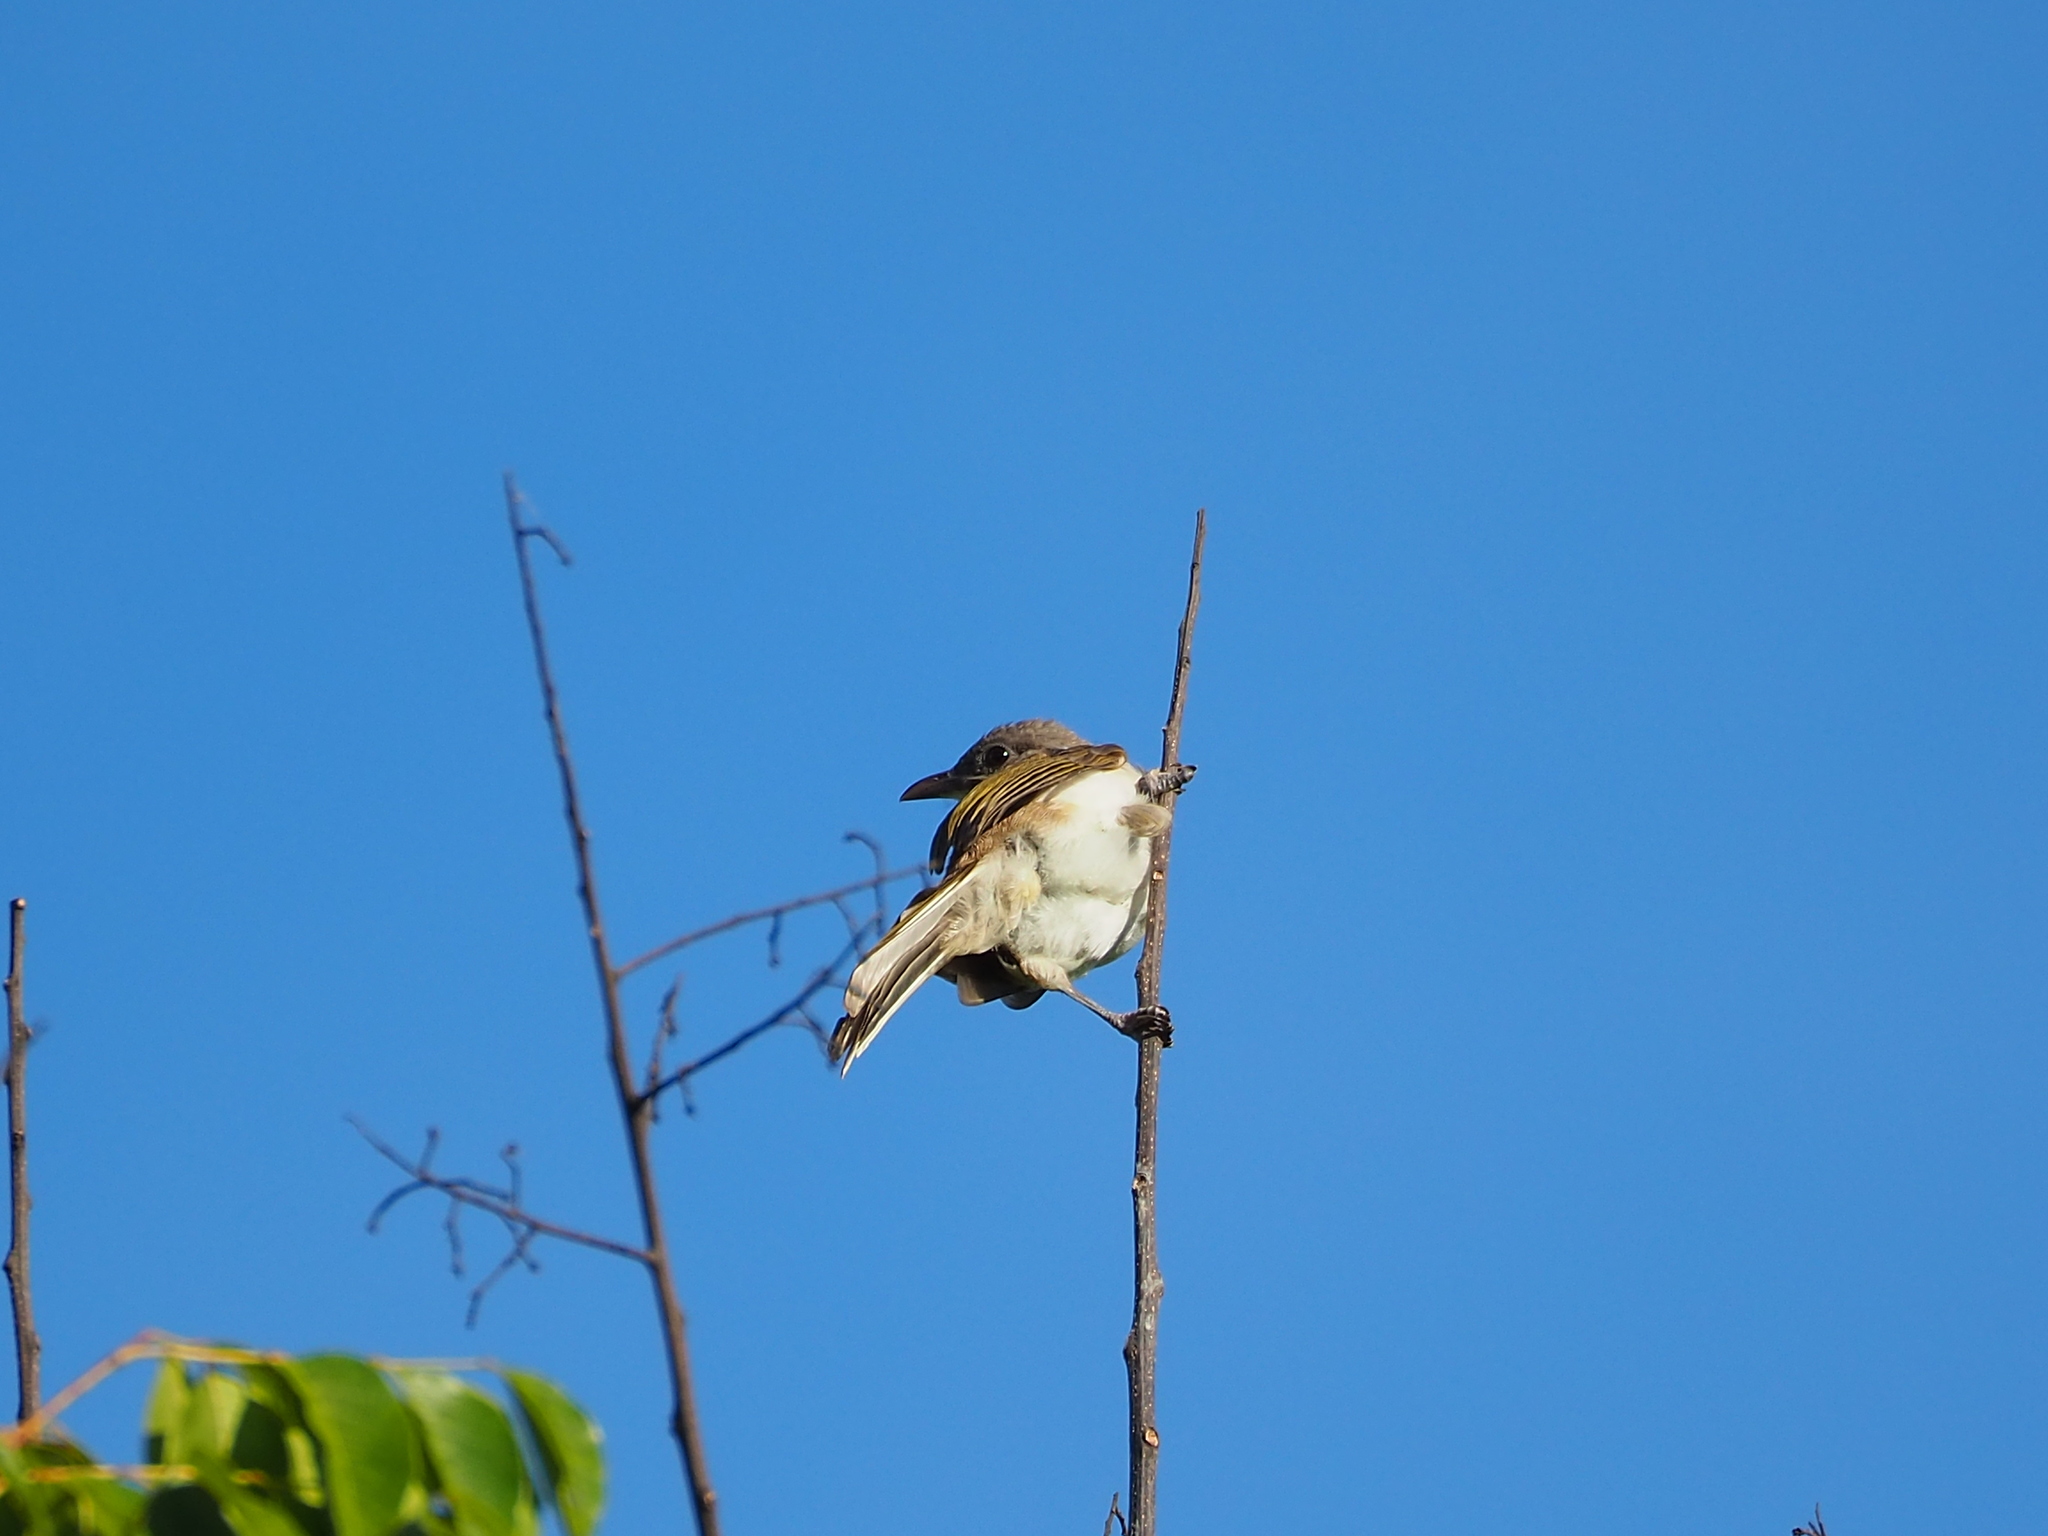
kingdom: Animalia
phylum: Chordata
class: Aves
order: Passeriformes
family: Pycnonotidae
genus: Pycnonotus
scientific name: Pycnonotus sinensis
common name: Light-vented bulbul
